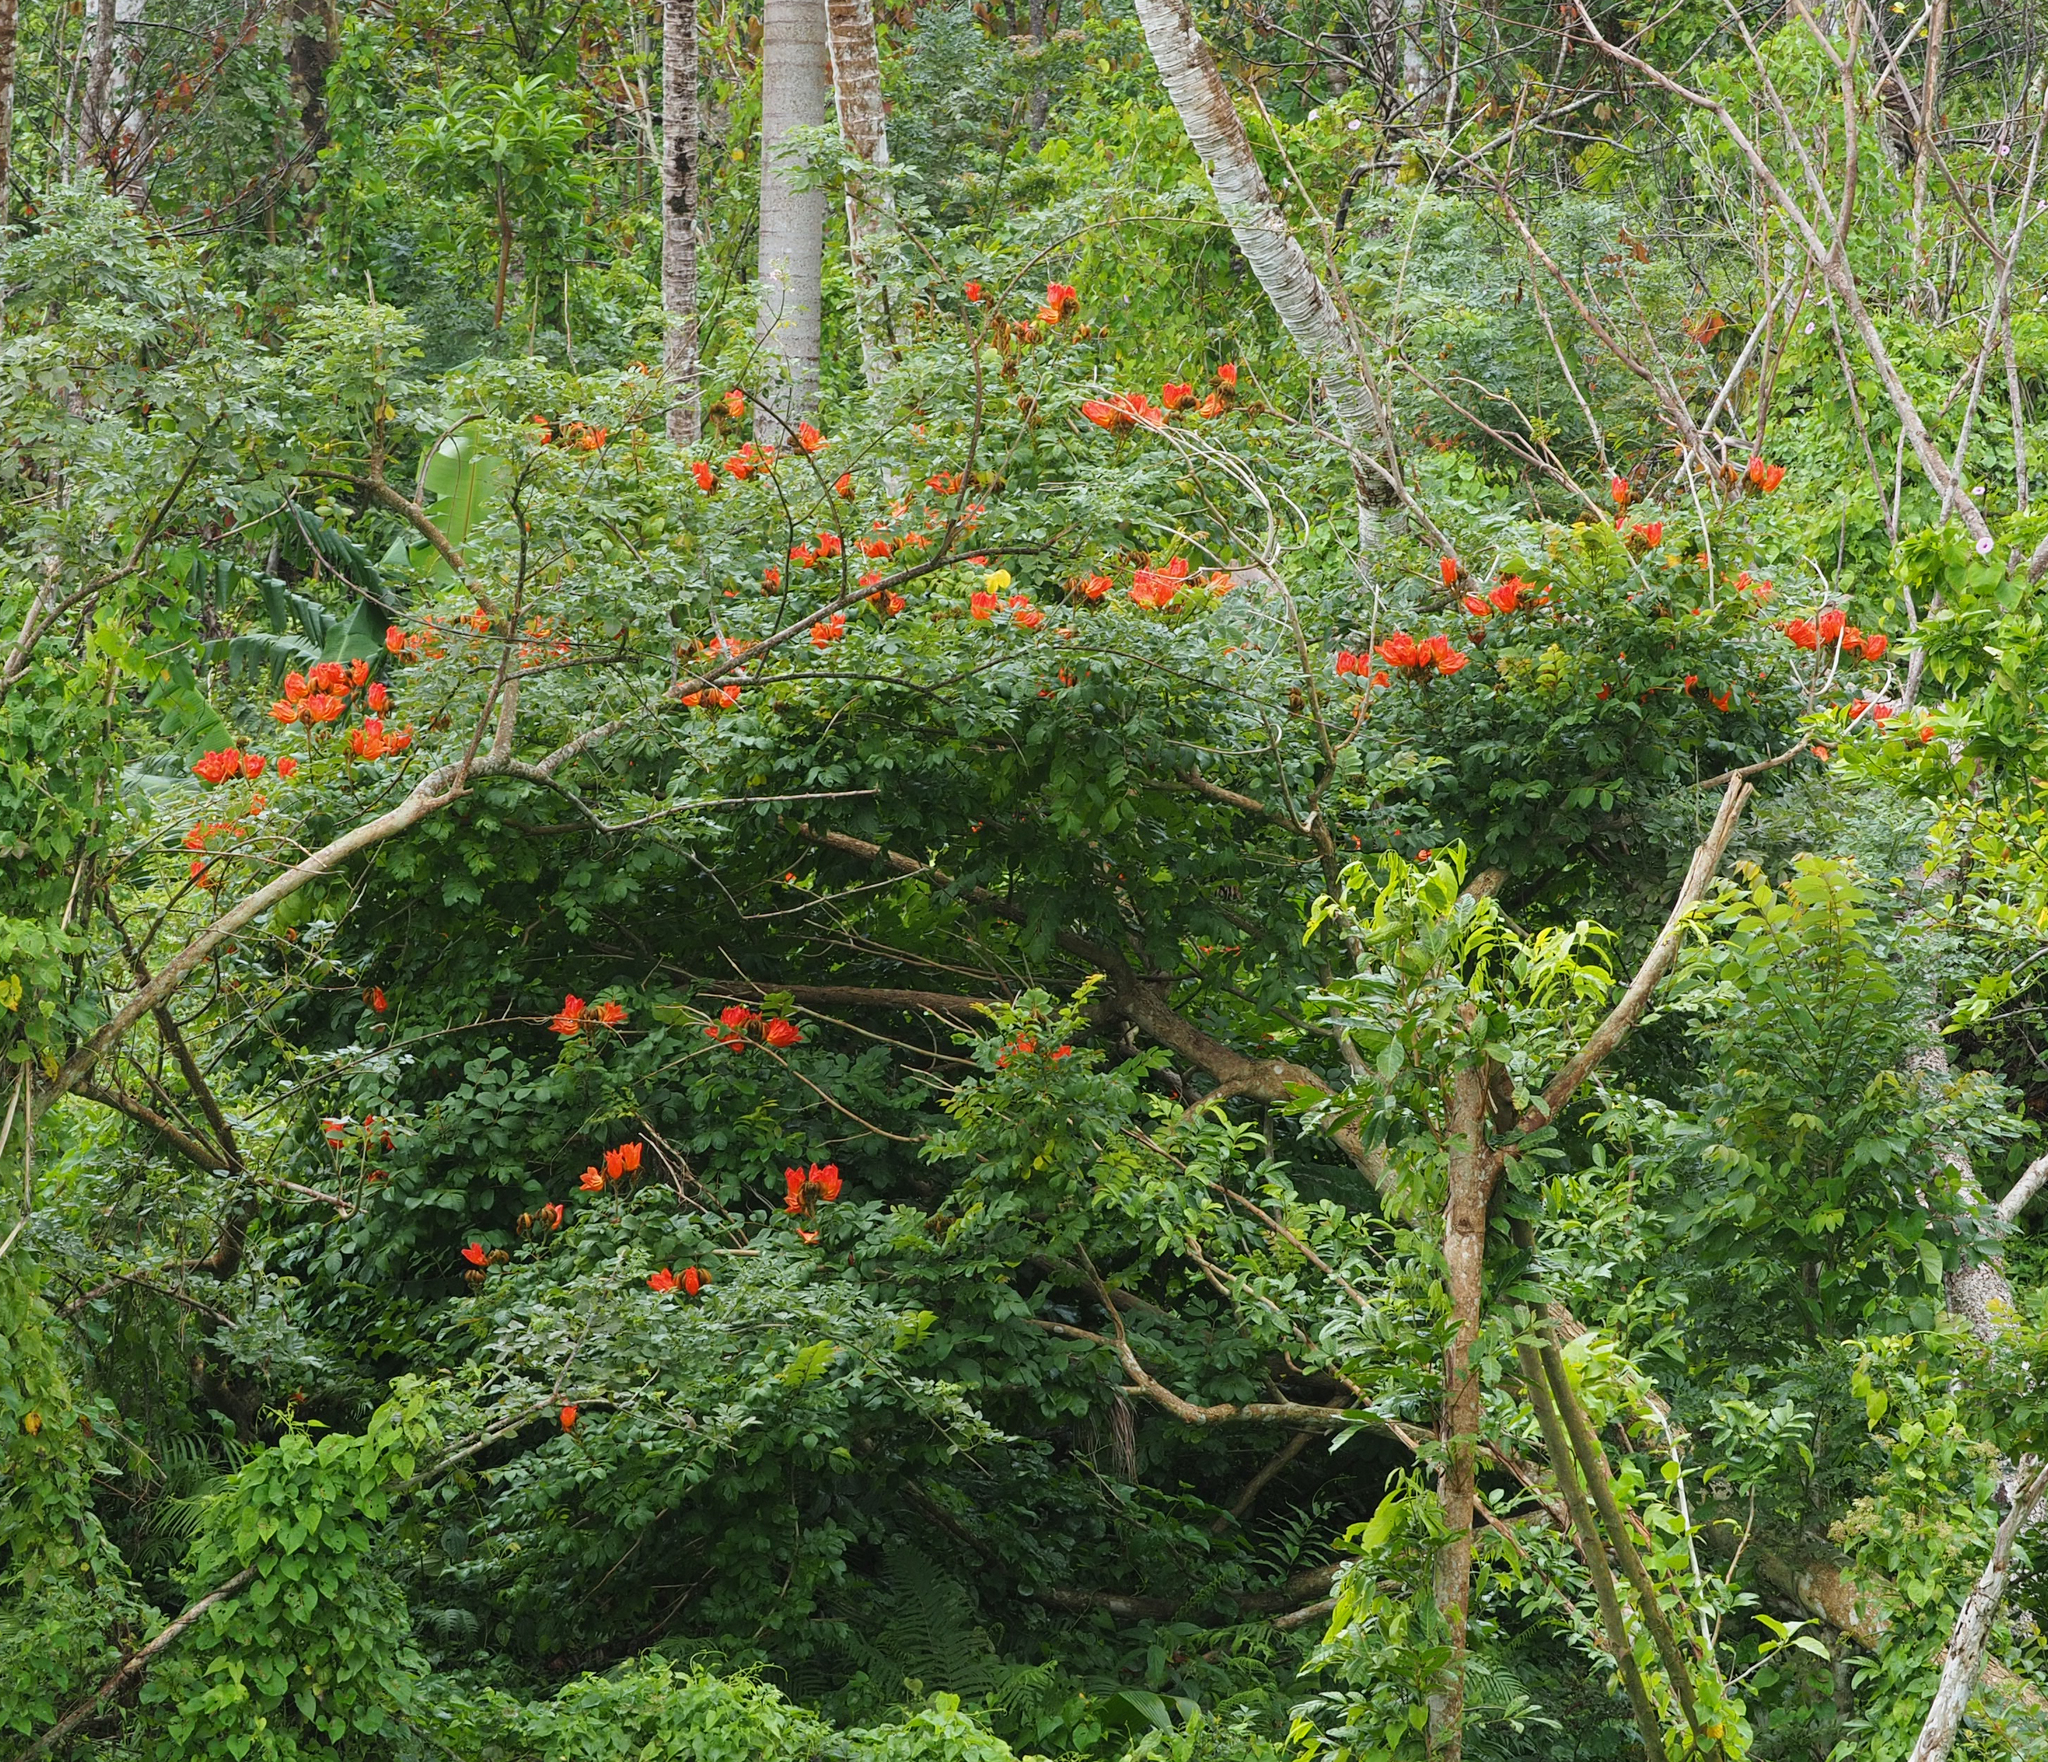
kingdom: Plantae
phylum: Tracheophyta
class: Magnoliopsida
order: Lamiales
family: Bignoniaceae
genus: Spathodea
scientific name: Spathodea campanulata
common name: African tuliptree
